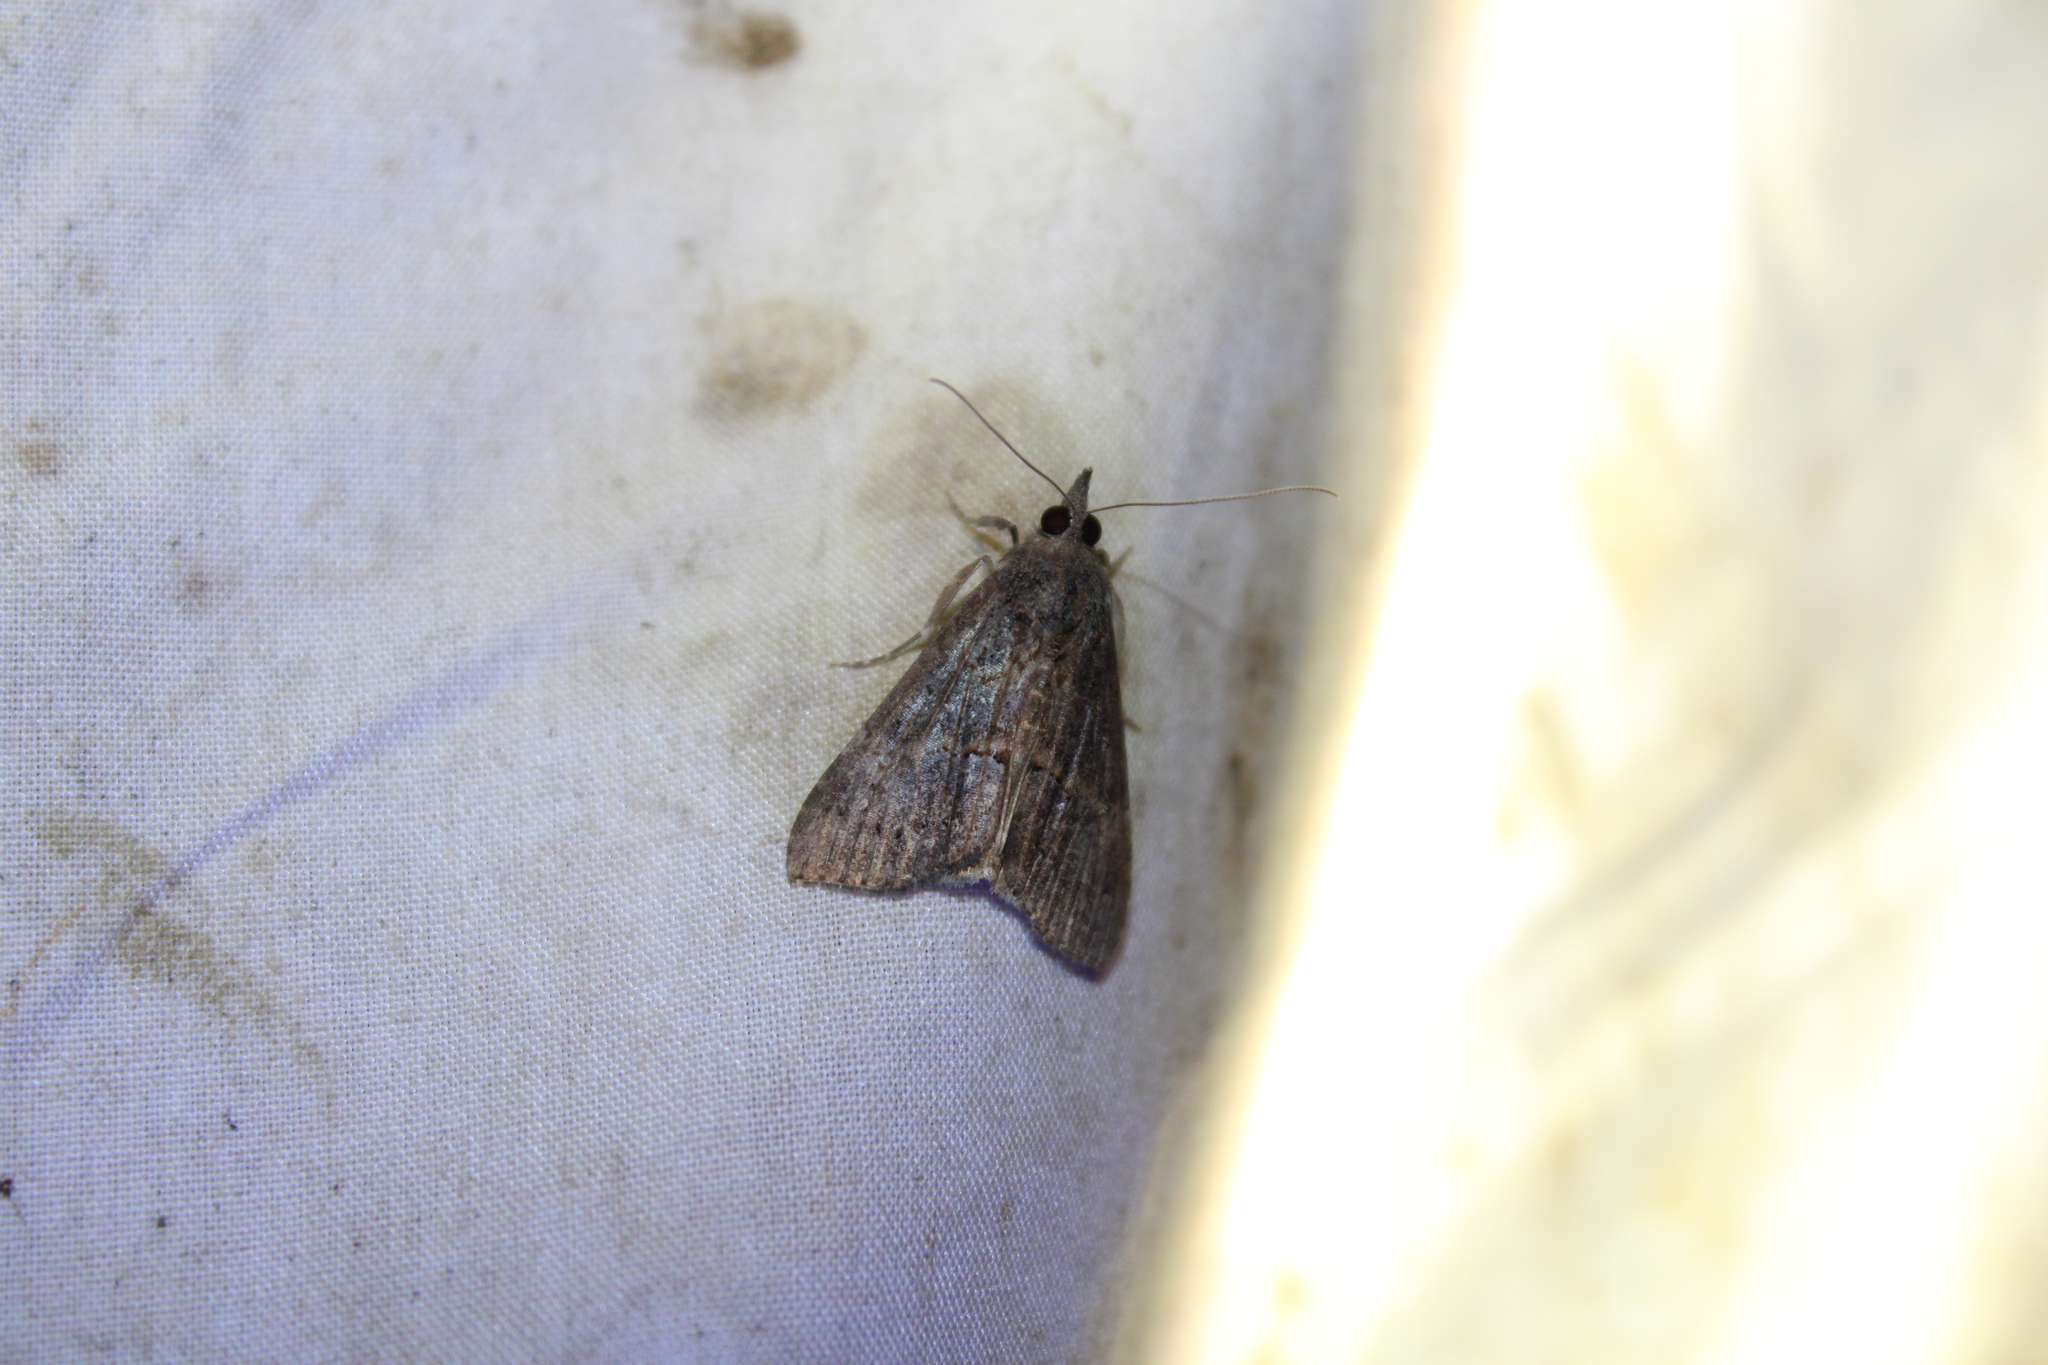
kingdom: Animalia
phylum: Arthropoda
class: Insecta
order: Lepidoptera
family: Erebidae
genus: Hypena
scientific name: Hypena scabra
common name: Green cloverworm
